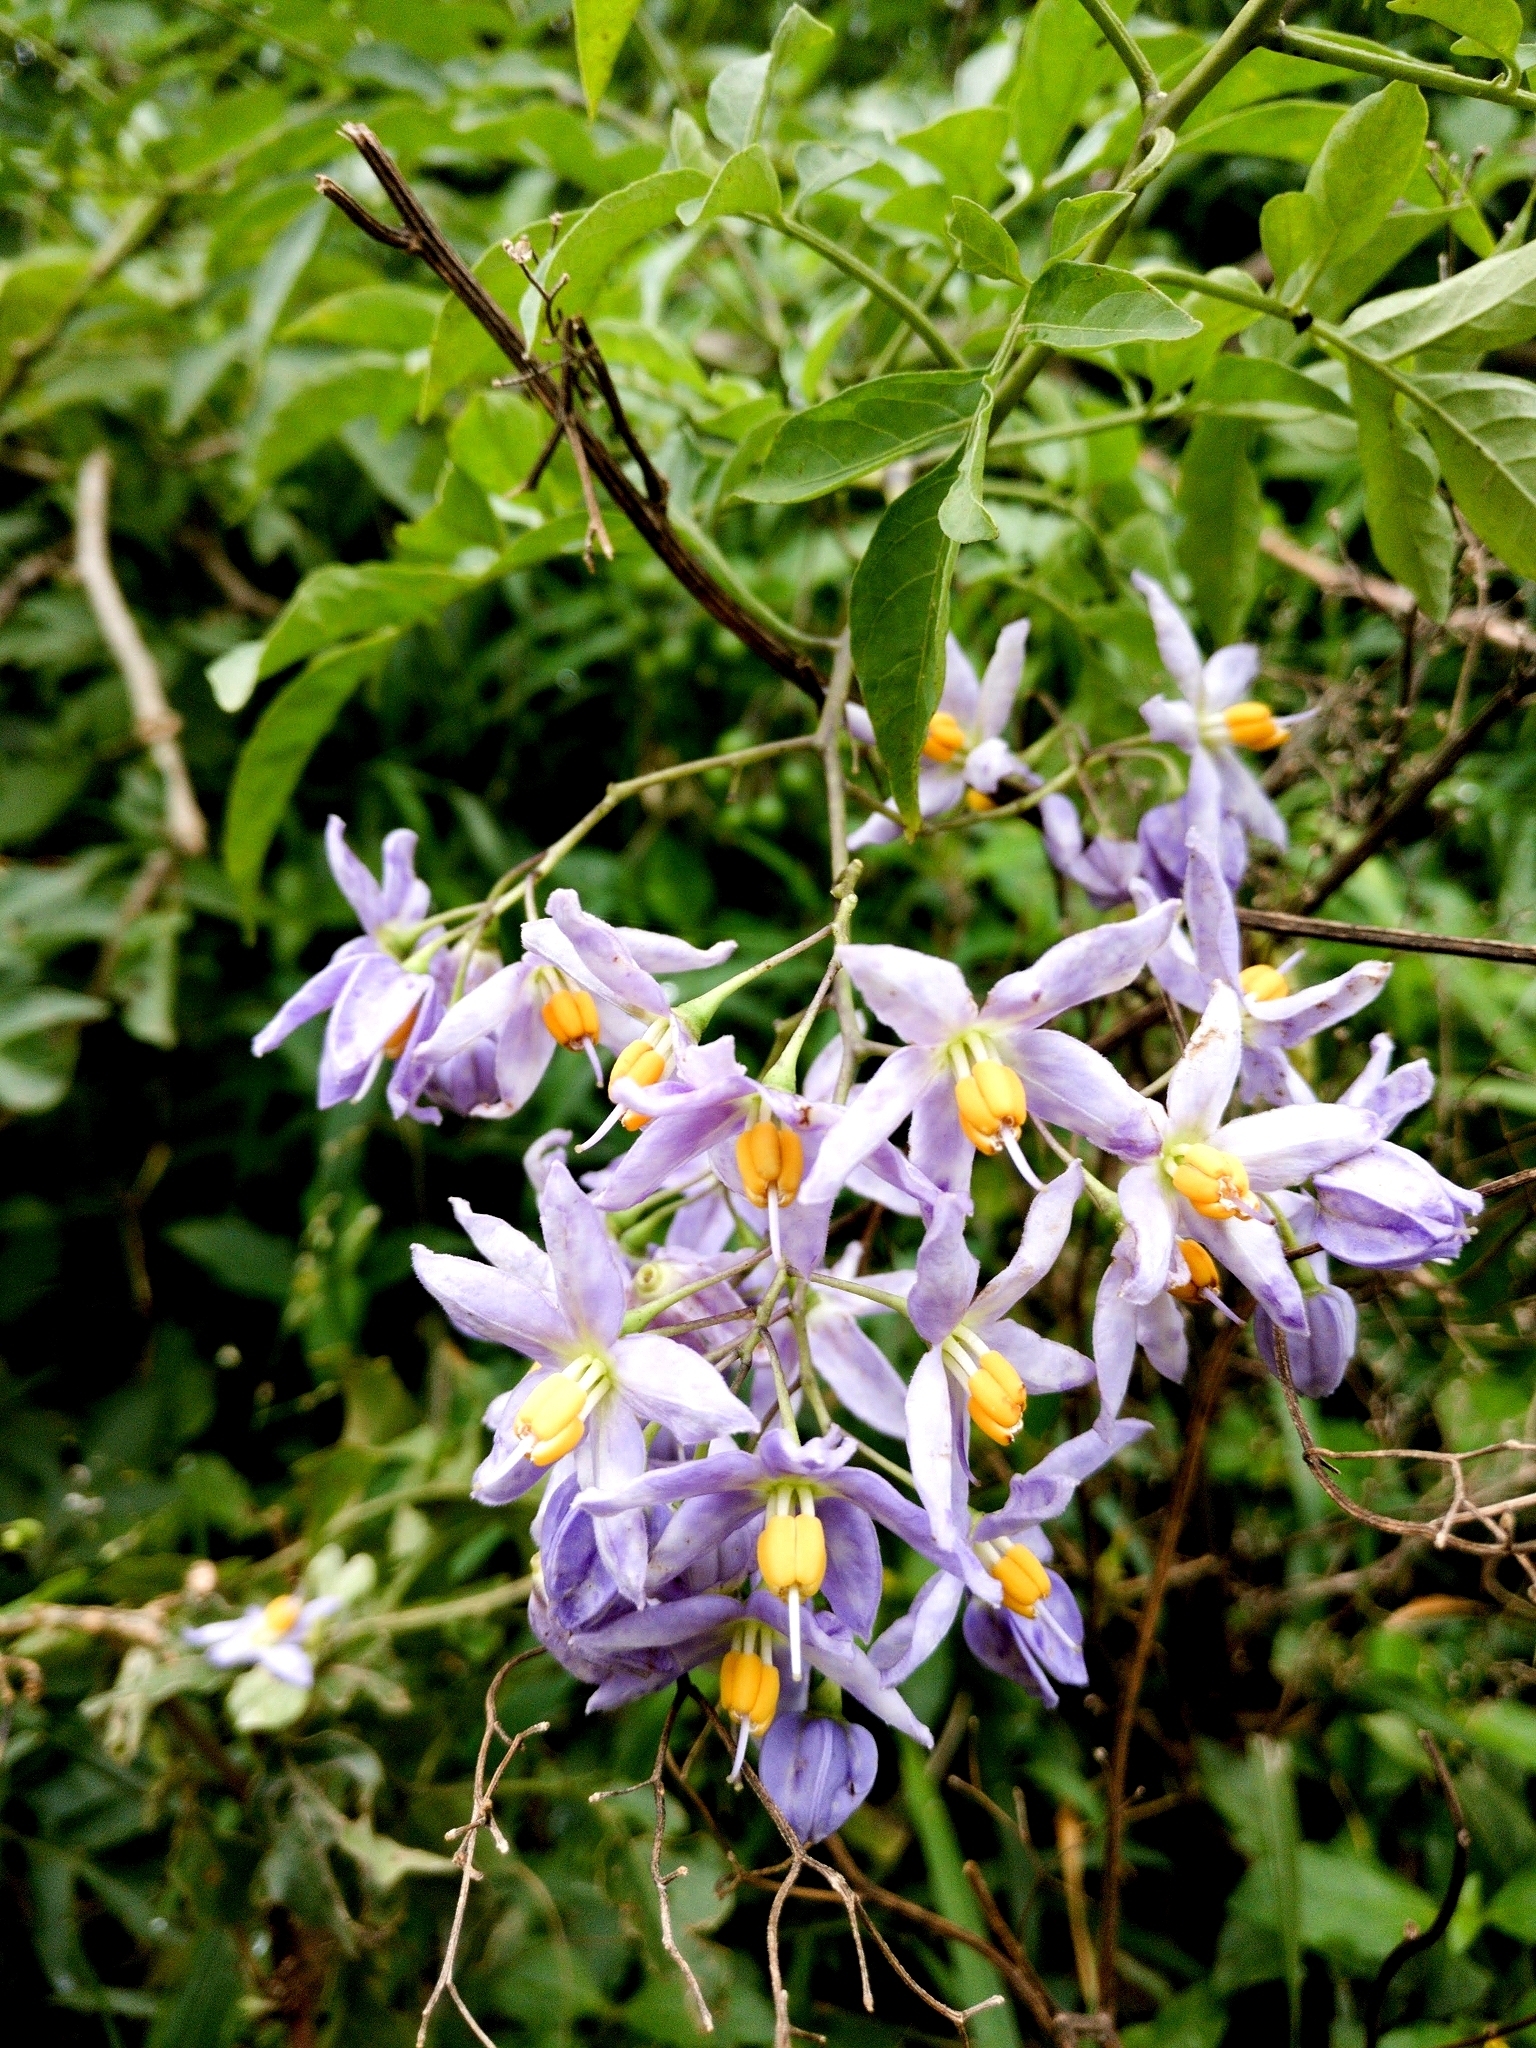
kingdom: Plantae
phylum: Tracheophyta
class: Magnoliopsida
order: Solanales
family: Solanaceae
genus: Solanum
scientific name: Solanum seaforthianum
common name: Brazilian nightshade
